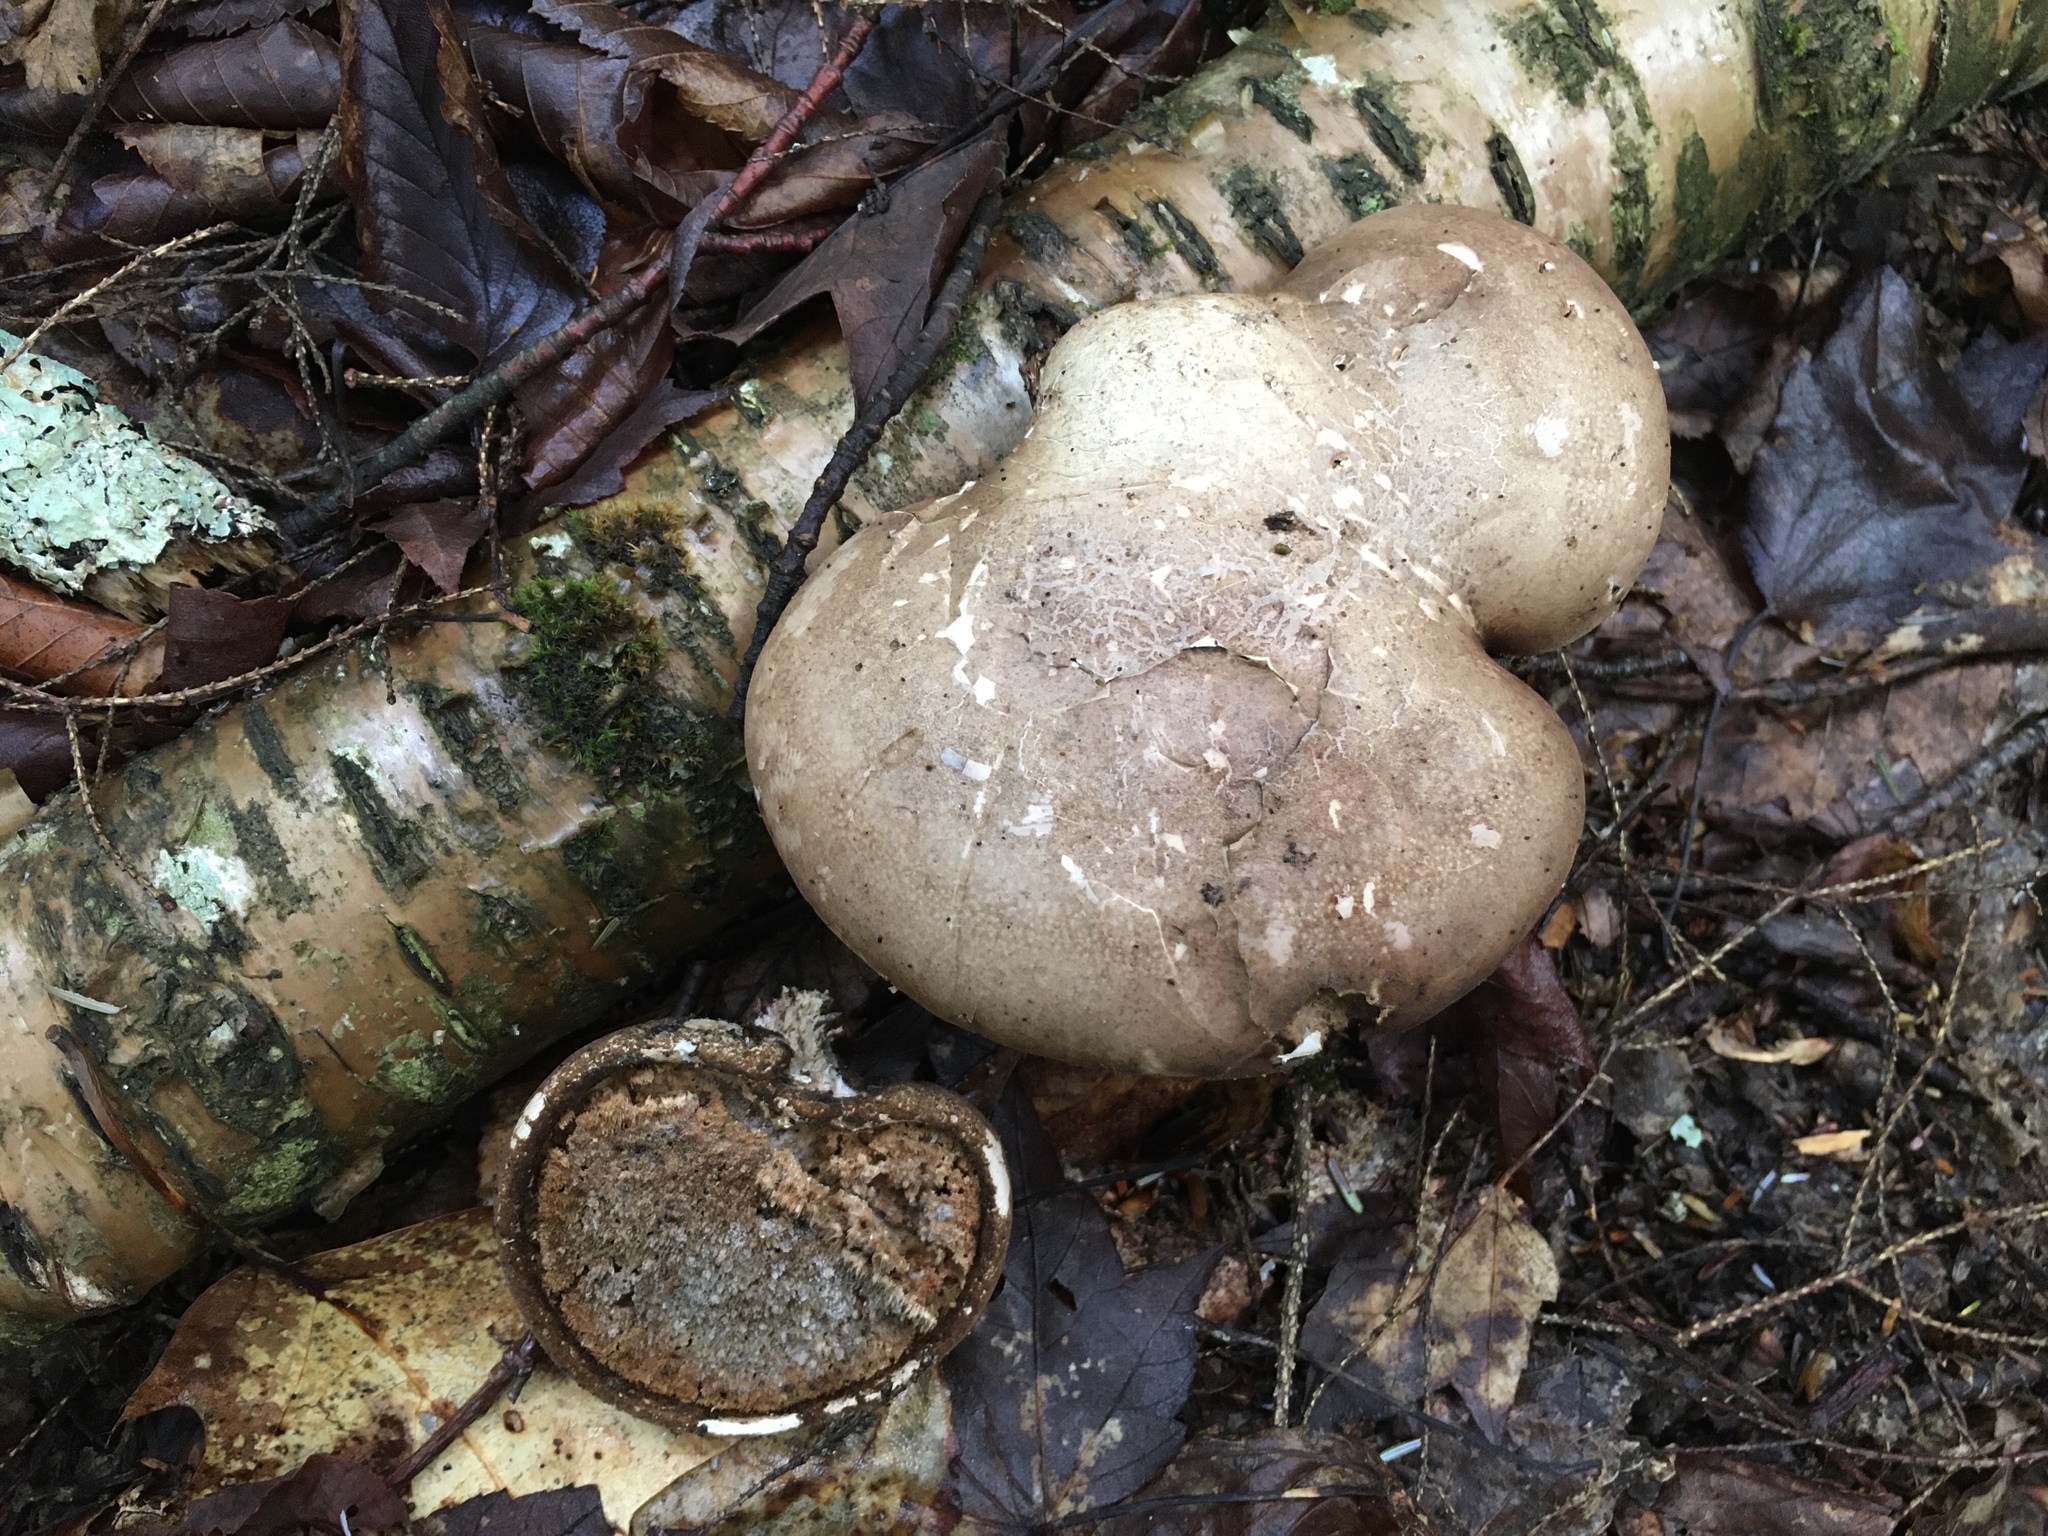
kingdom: Fungi
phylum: Basidiomycota
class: Agaricomycetes
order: Polyporales
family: Fomitopsidaceae
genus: Fomitopsis
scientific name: Fomitopsis betulina
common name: Birch polypore
